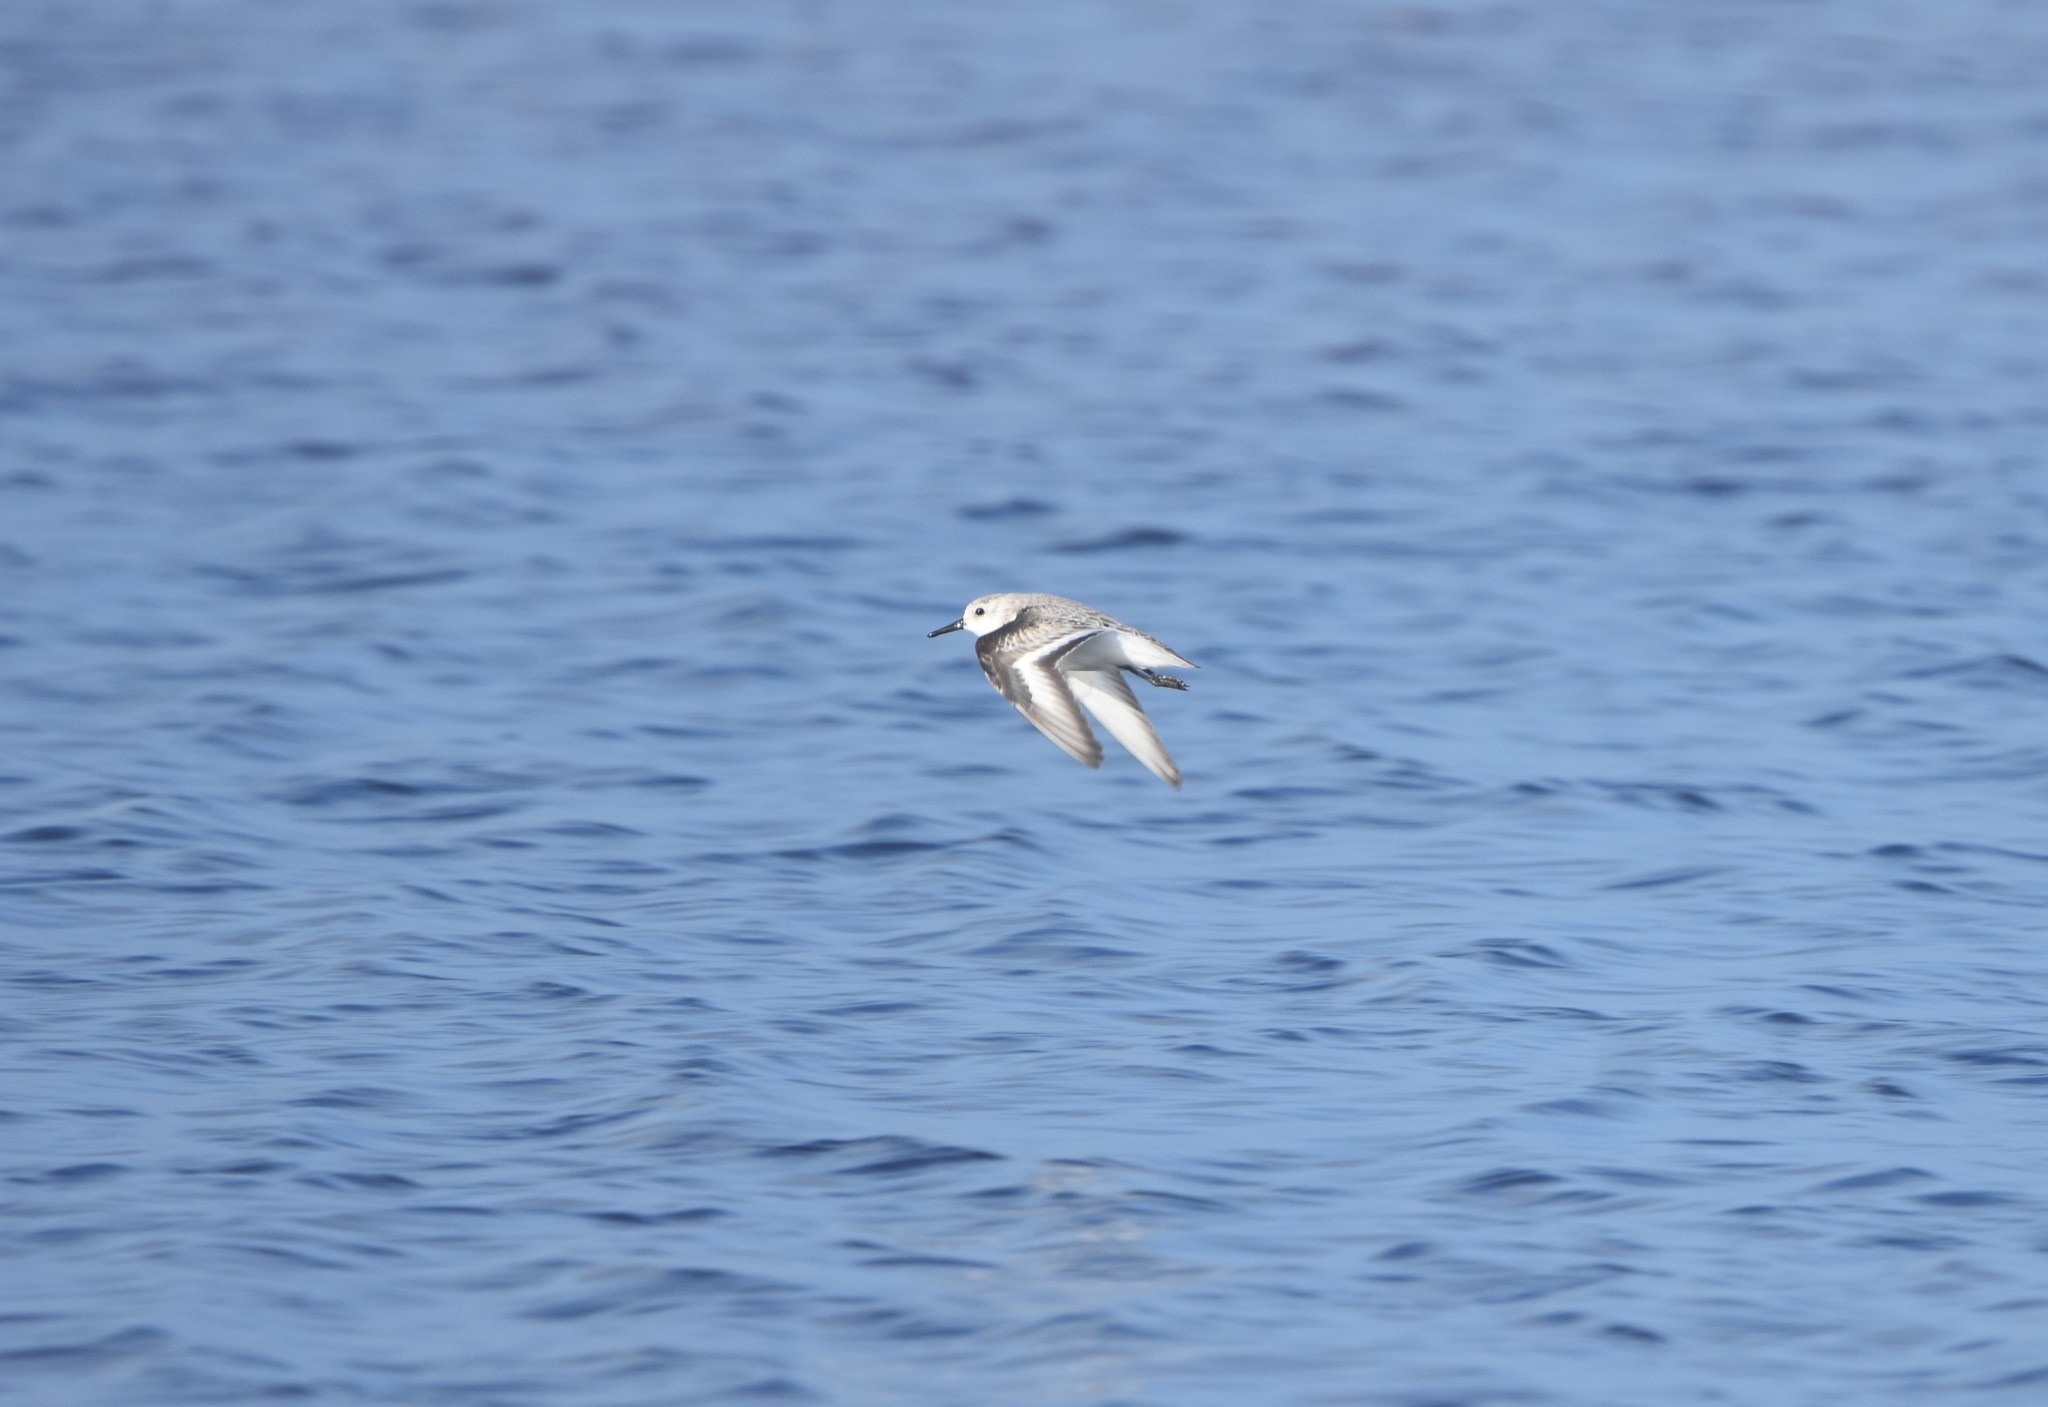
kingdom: Animalia
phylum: Chordata
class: Aves
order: Charadriiformes
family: Scolopacidae
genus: Calidris
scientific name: Calidris alba
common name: Sanderling
